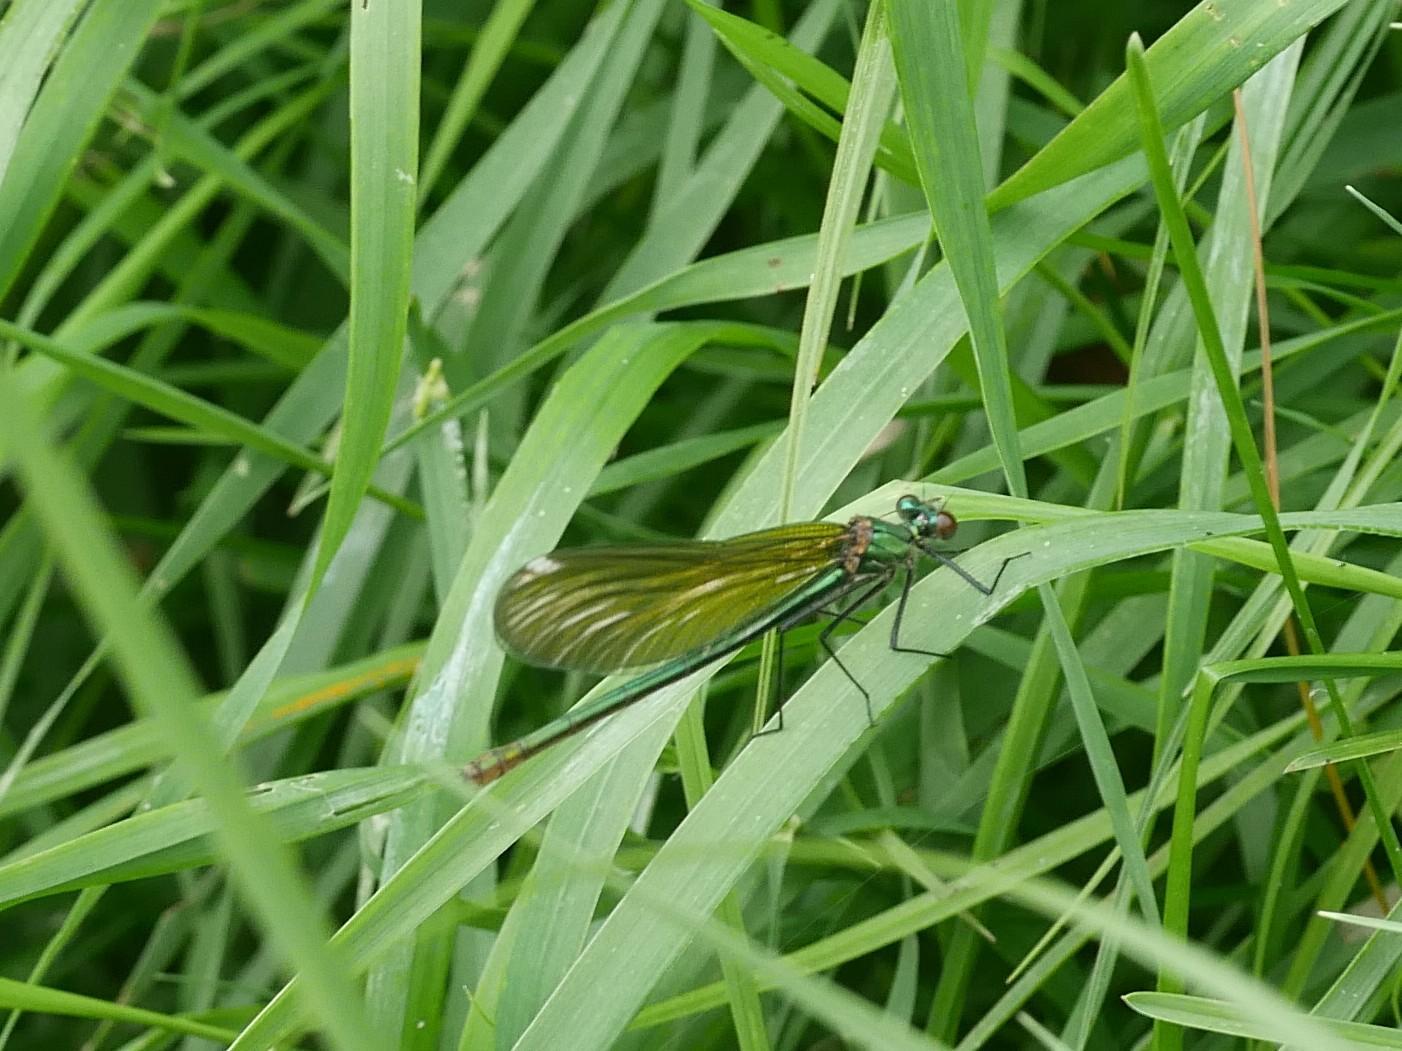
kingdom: Animalia
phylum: Arthropoda
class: Insecta
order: Odonata
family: Calopterygidae
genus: Calopteryx
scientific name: Calopteryx splendens
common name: Banded demoiselle
